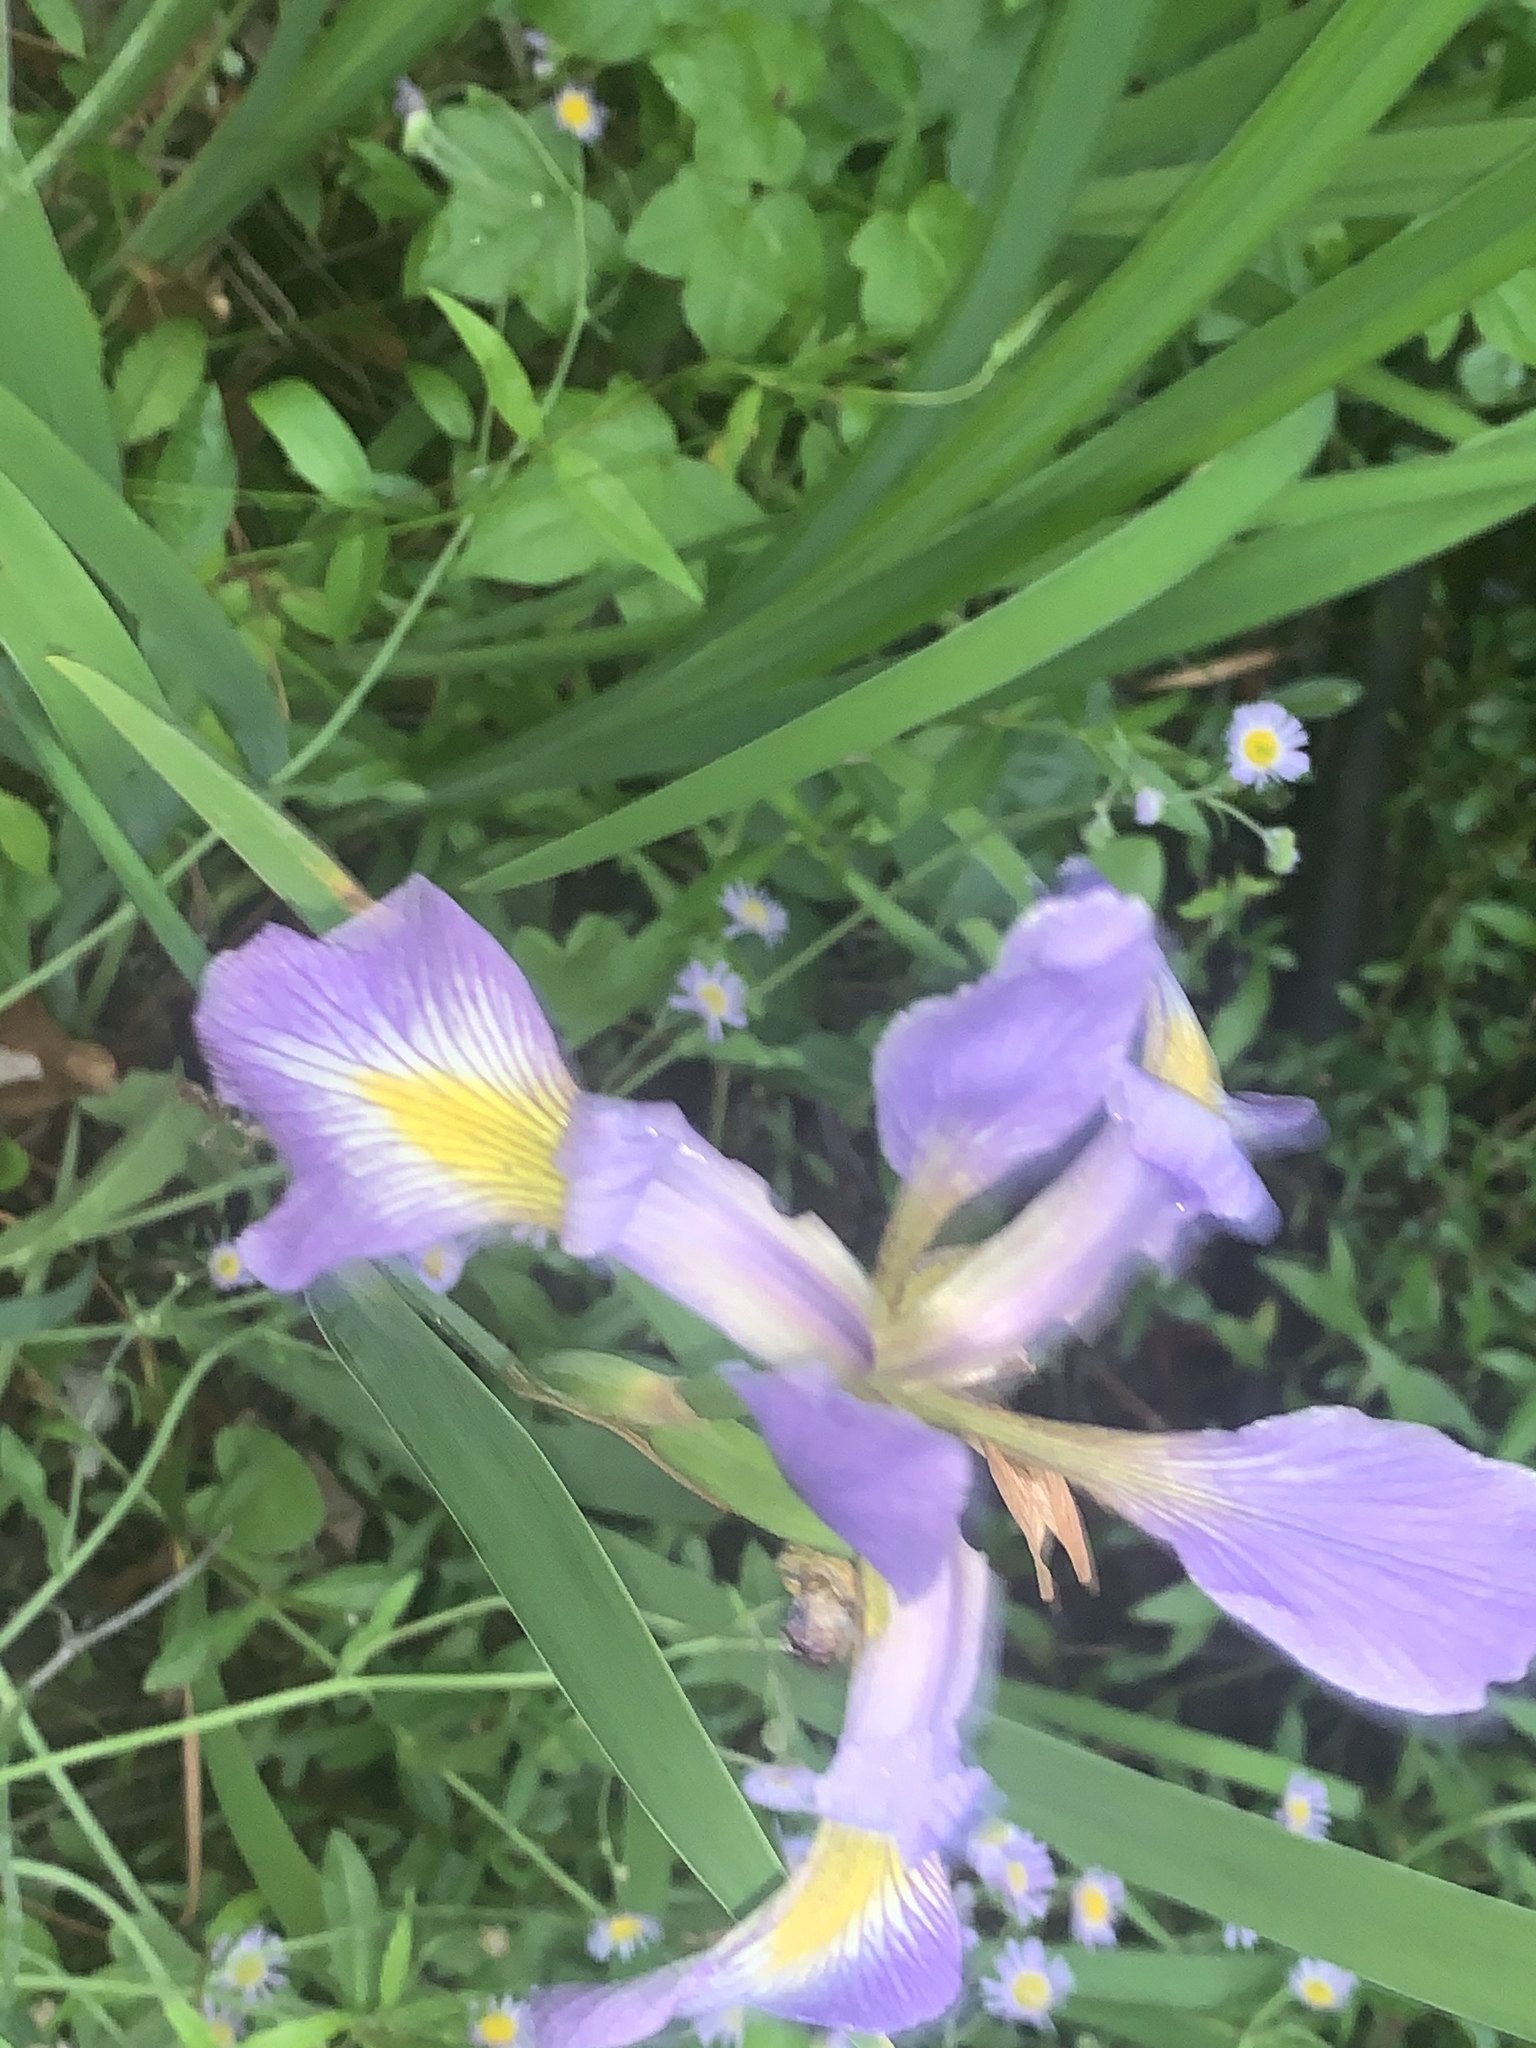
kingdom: Plantae
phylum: Tracheophyta
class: Liliopsida
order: Asparagales
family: Iridaceae
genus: Iris
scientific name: Iris virginica
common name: Southern blue flag
